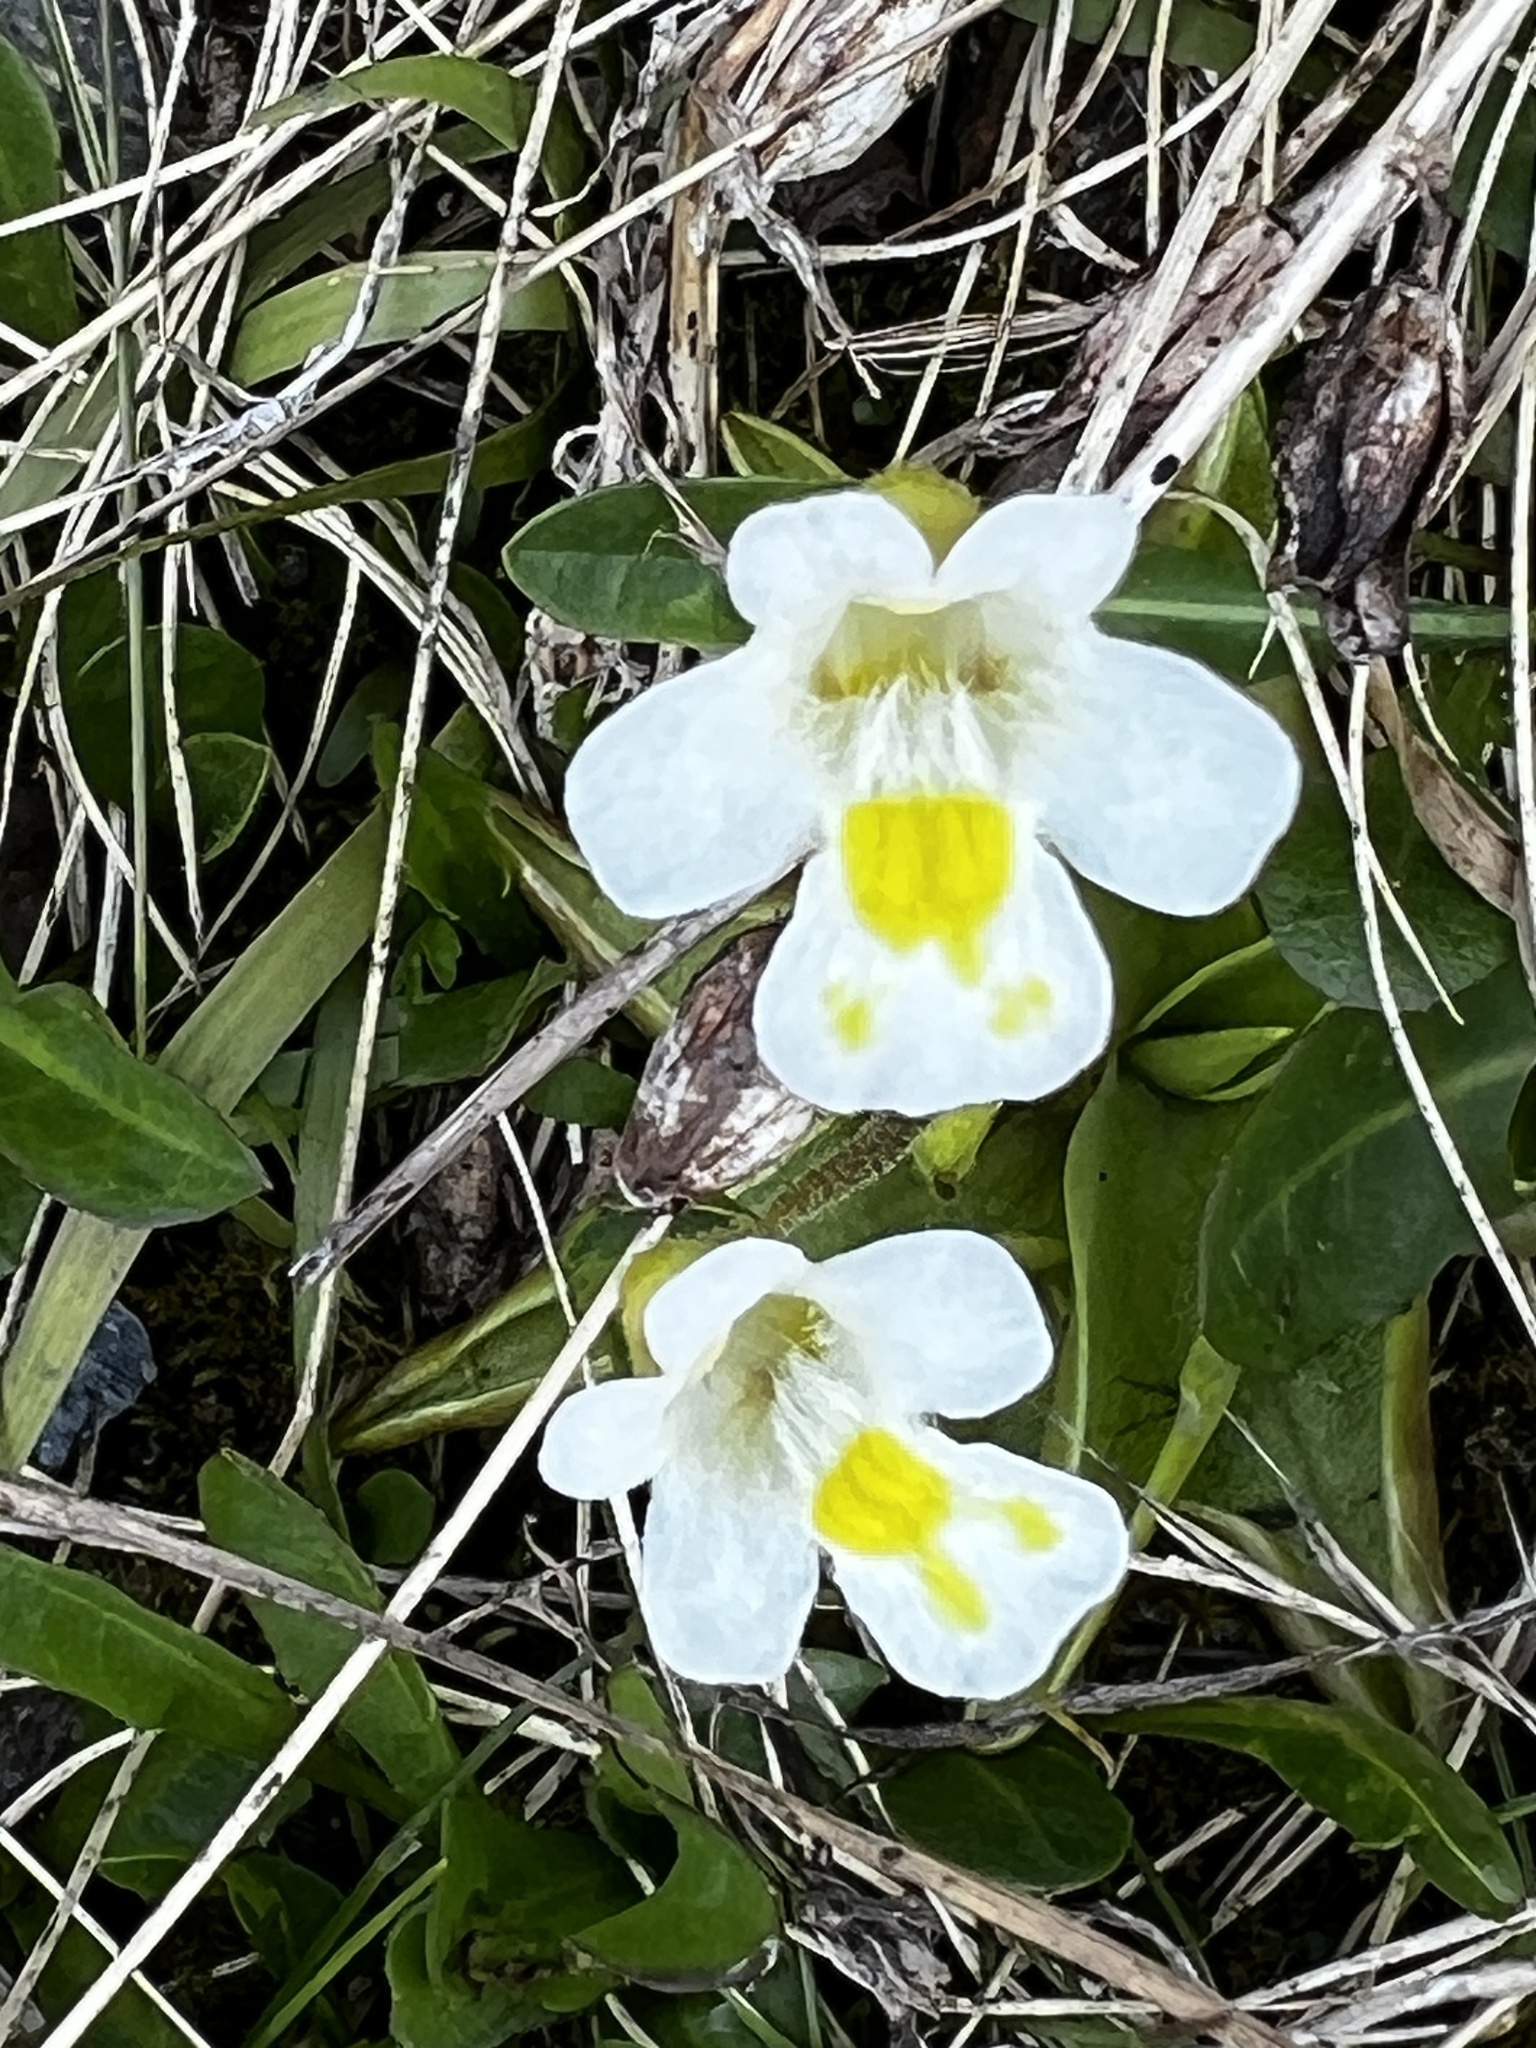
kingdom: Plantae
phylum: Tracheophyta
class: Magnoliopsida
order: Lamiales
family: Lentibulariaceae
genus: Pinguicula
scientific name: Pinguicula alpina
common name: Alpine butterwort
